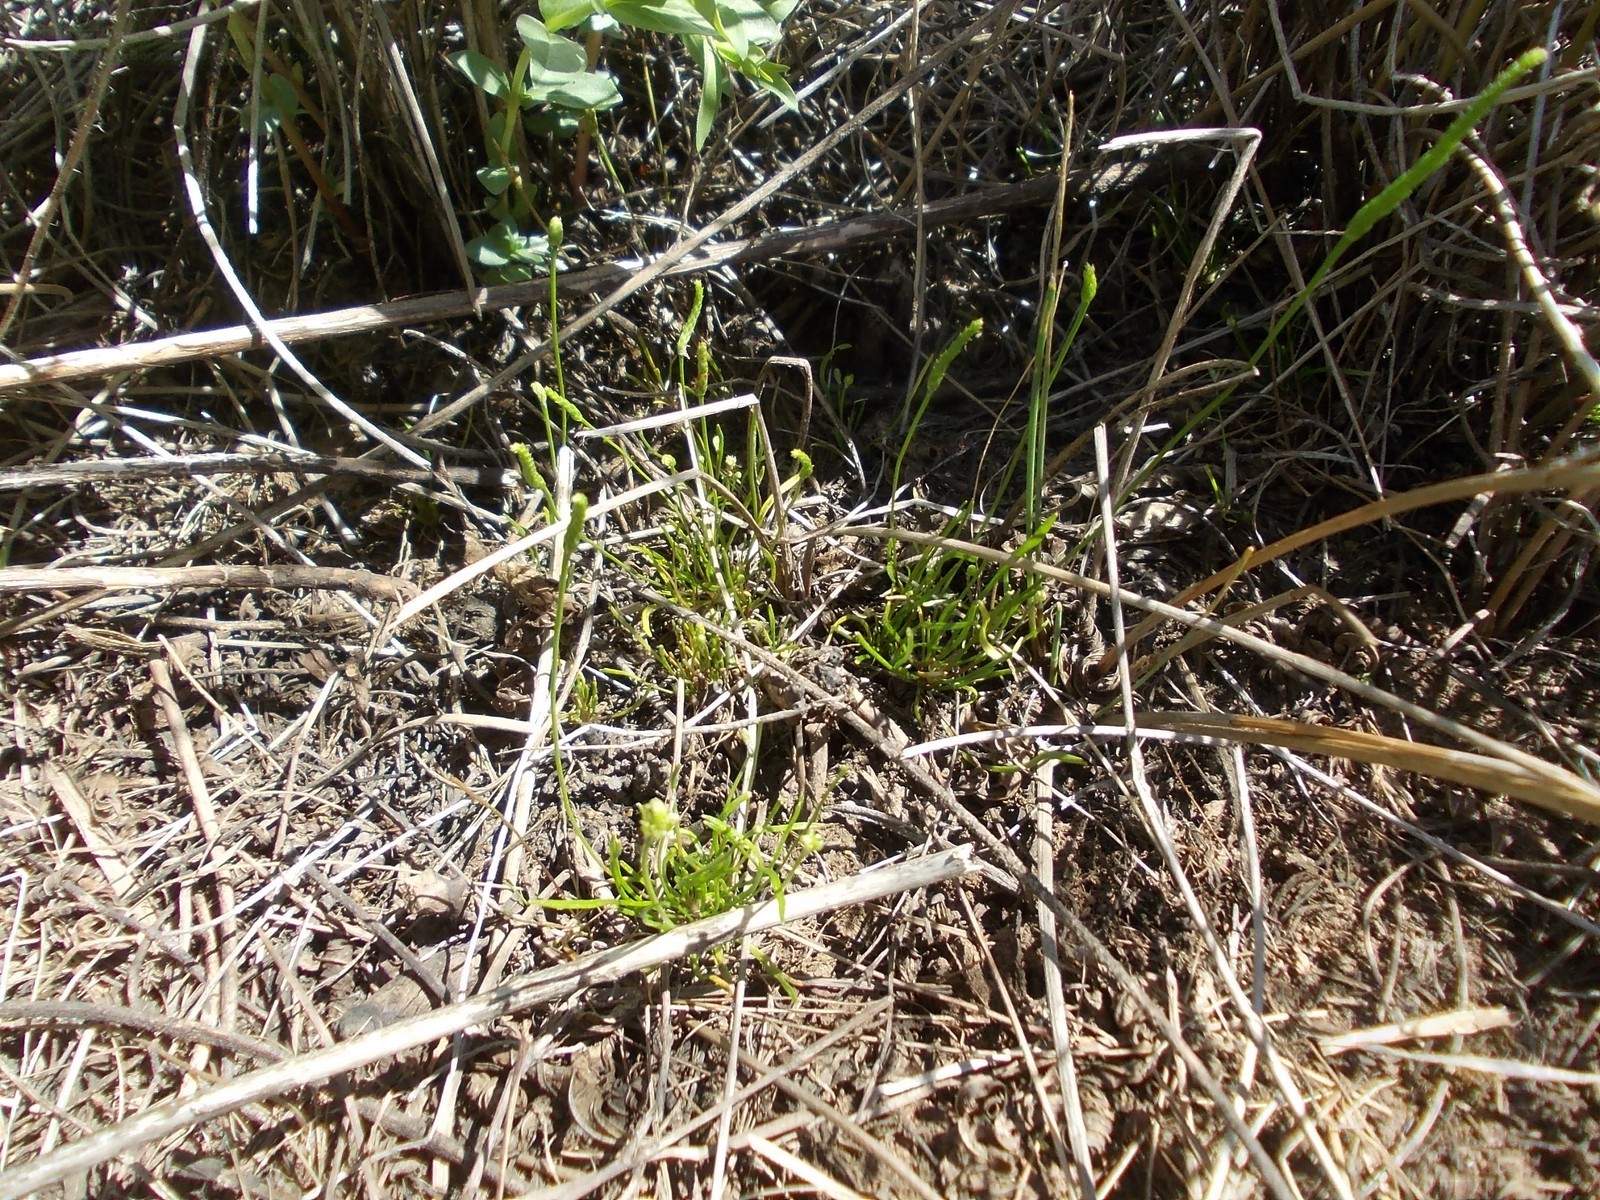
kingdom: Plantae
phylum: Tracheophyta
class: Magnoliopsida
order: Ranunculales
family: Ranunculaceae
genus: Myosurus
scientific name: Myosurus minimus
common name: Mousetail
